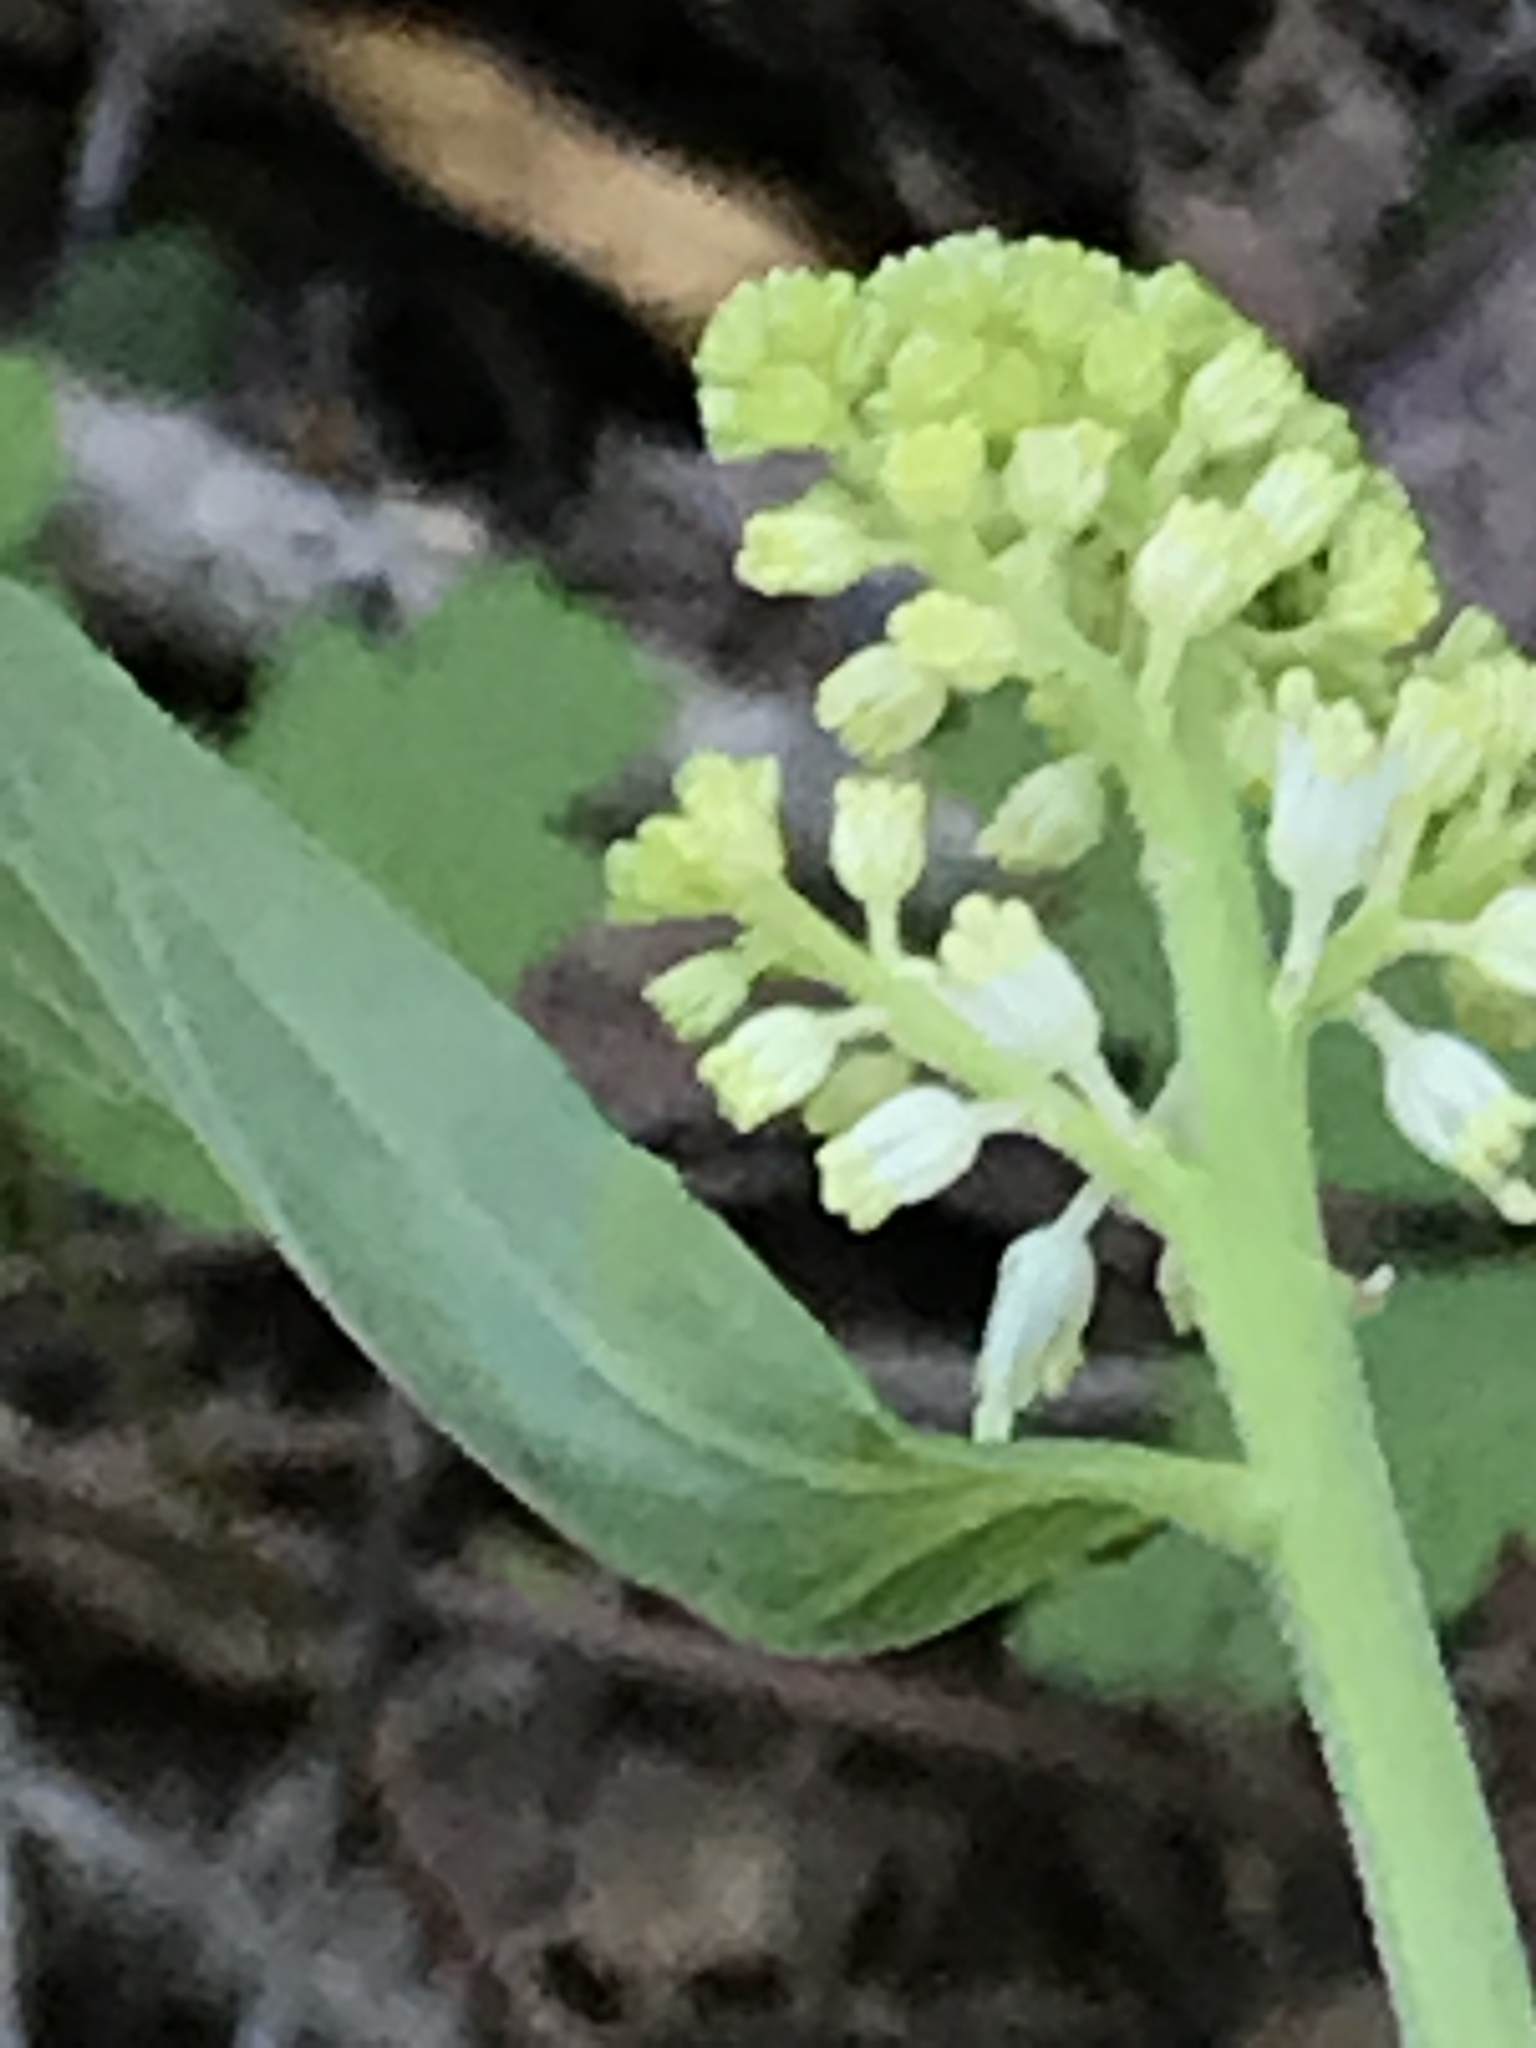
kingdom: Plantae
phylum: Tracheophyta
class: Liliopsida
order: Asparagales
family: Asparagaceae
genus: Maianthemum
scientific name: Maianthemum racemosum
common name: False spikenard
